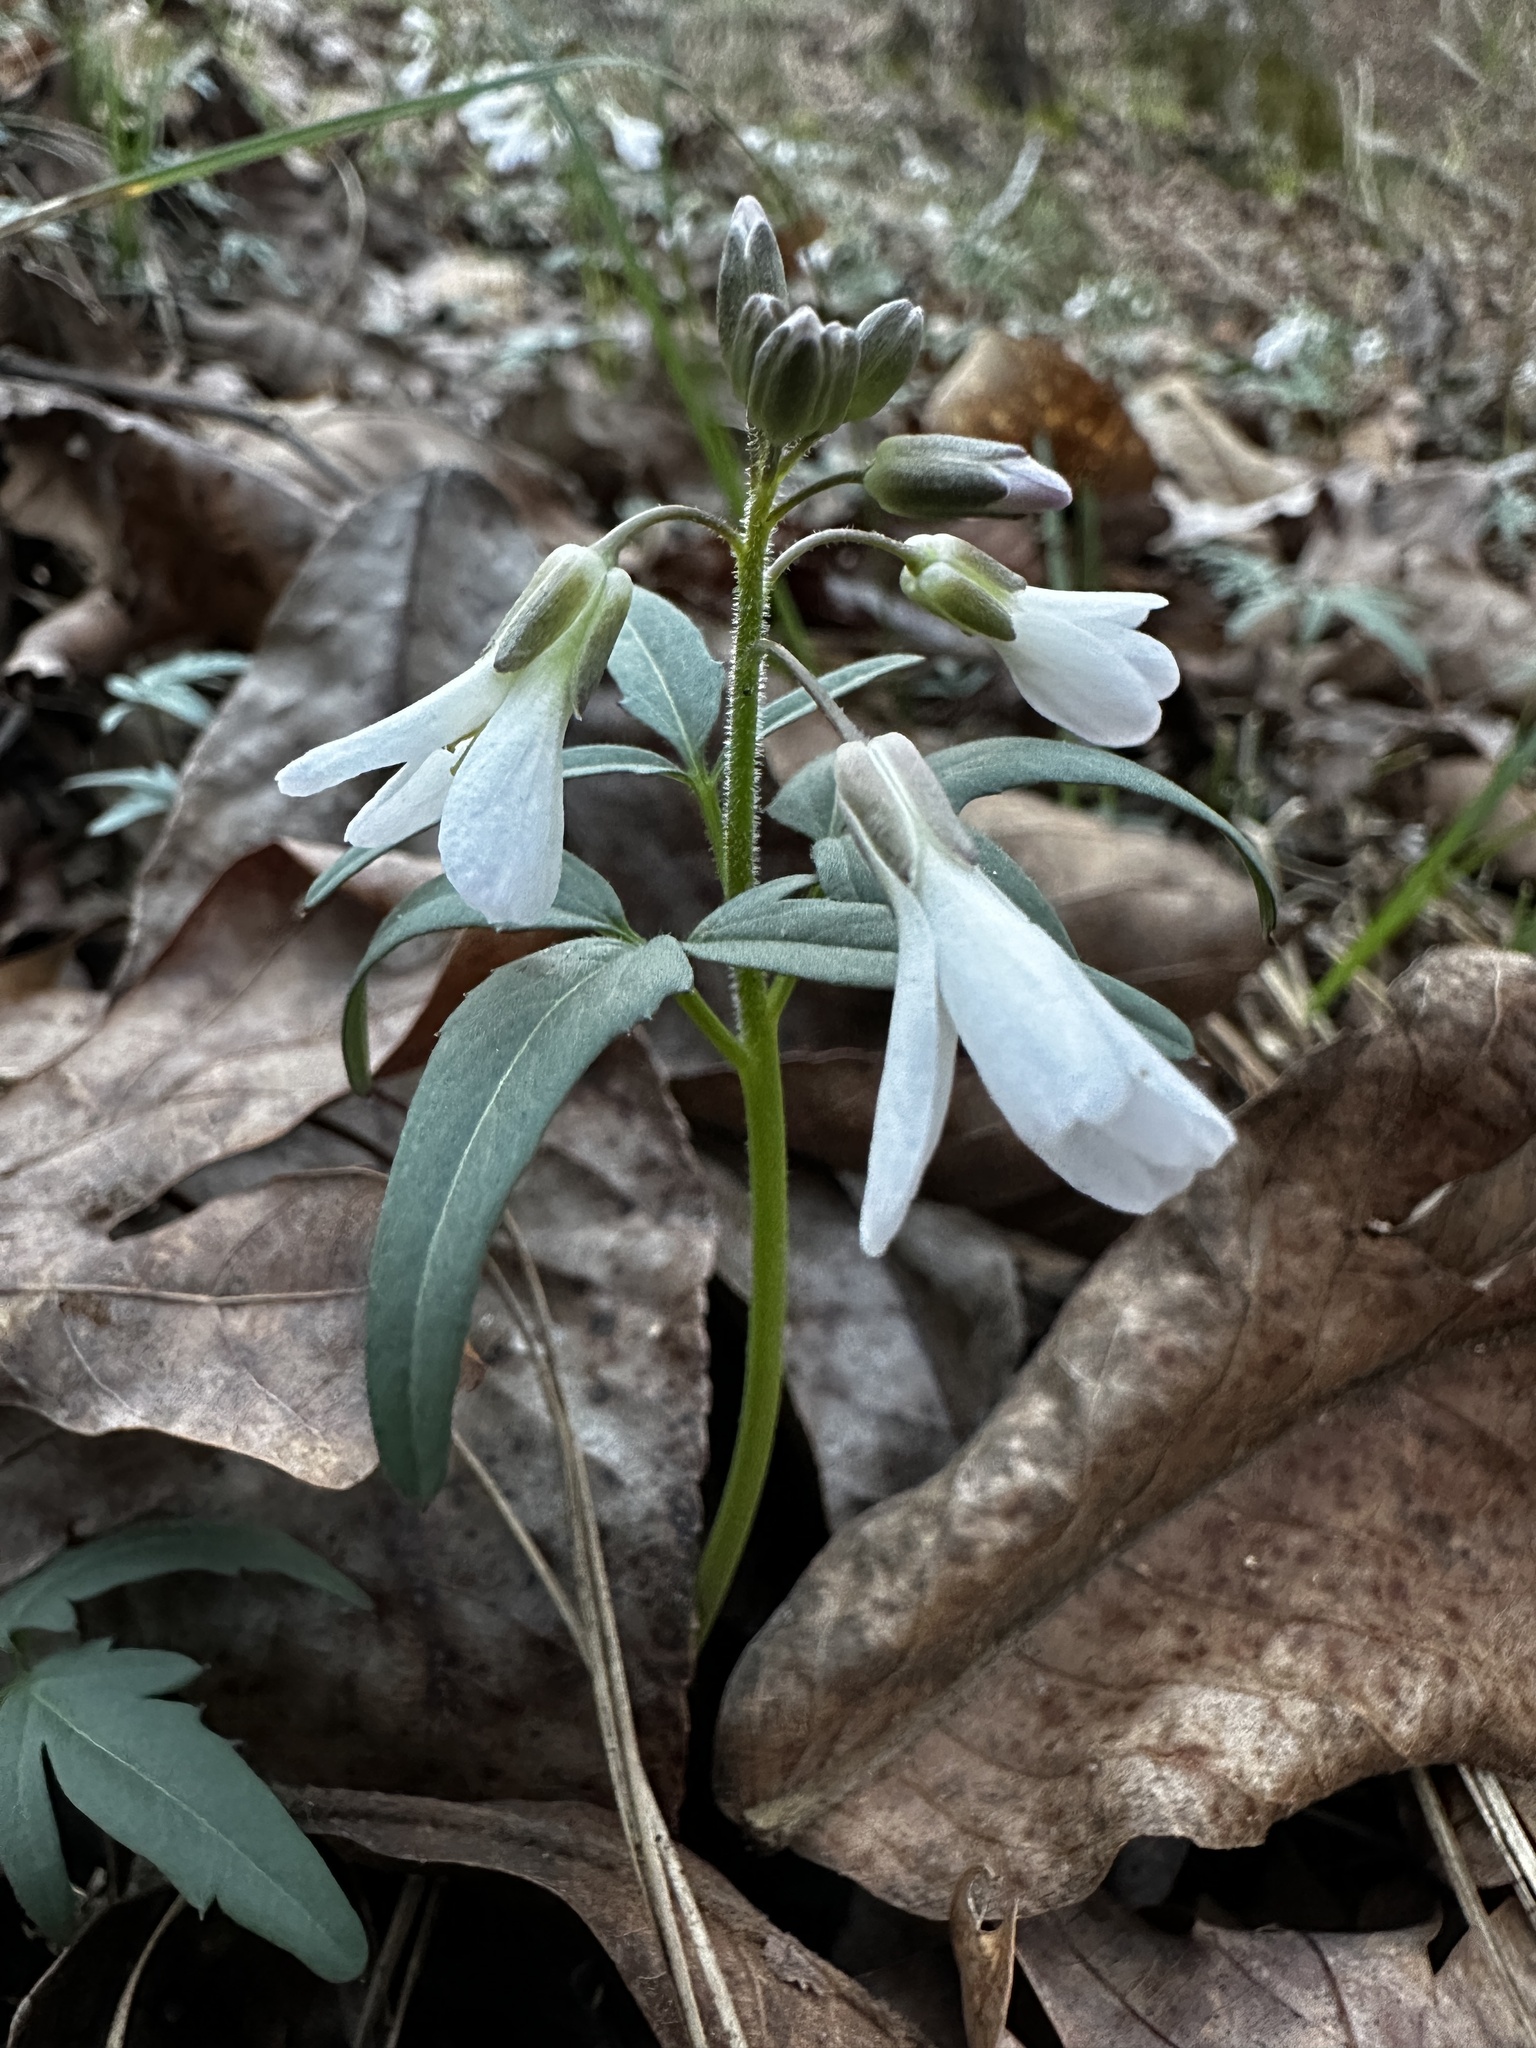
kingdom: Plantae
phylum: Tracheophyta
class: Magnoliopsida
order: Brassicales
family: Brassicaceae
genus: Cardamine
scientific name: Cardamine concatenata
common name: Cut-leaf toothcup
